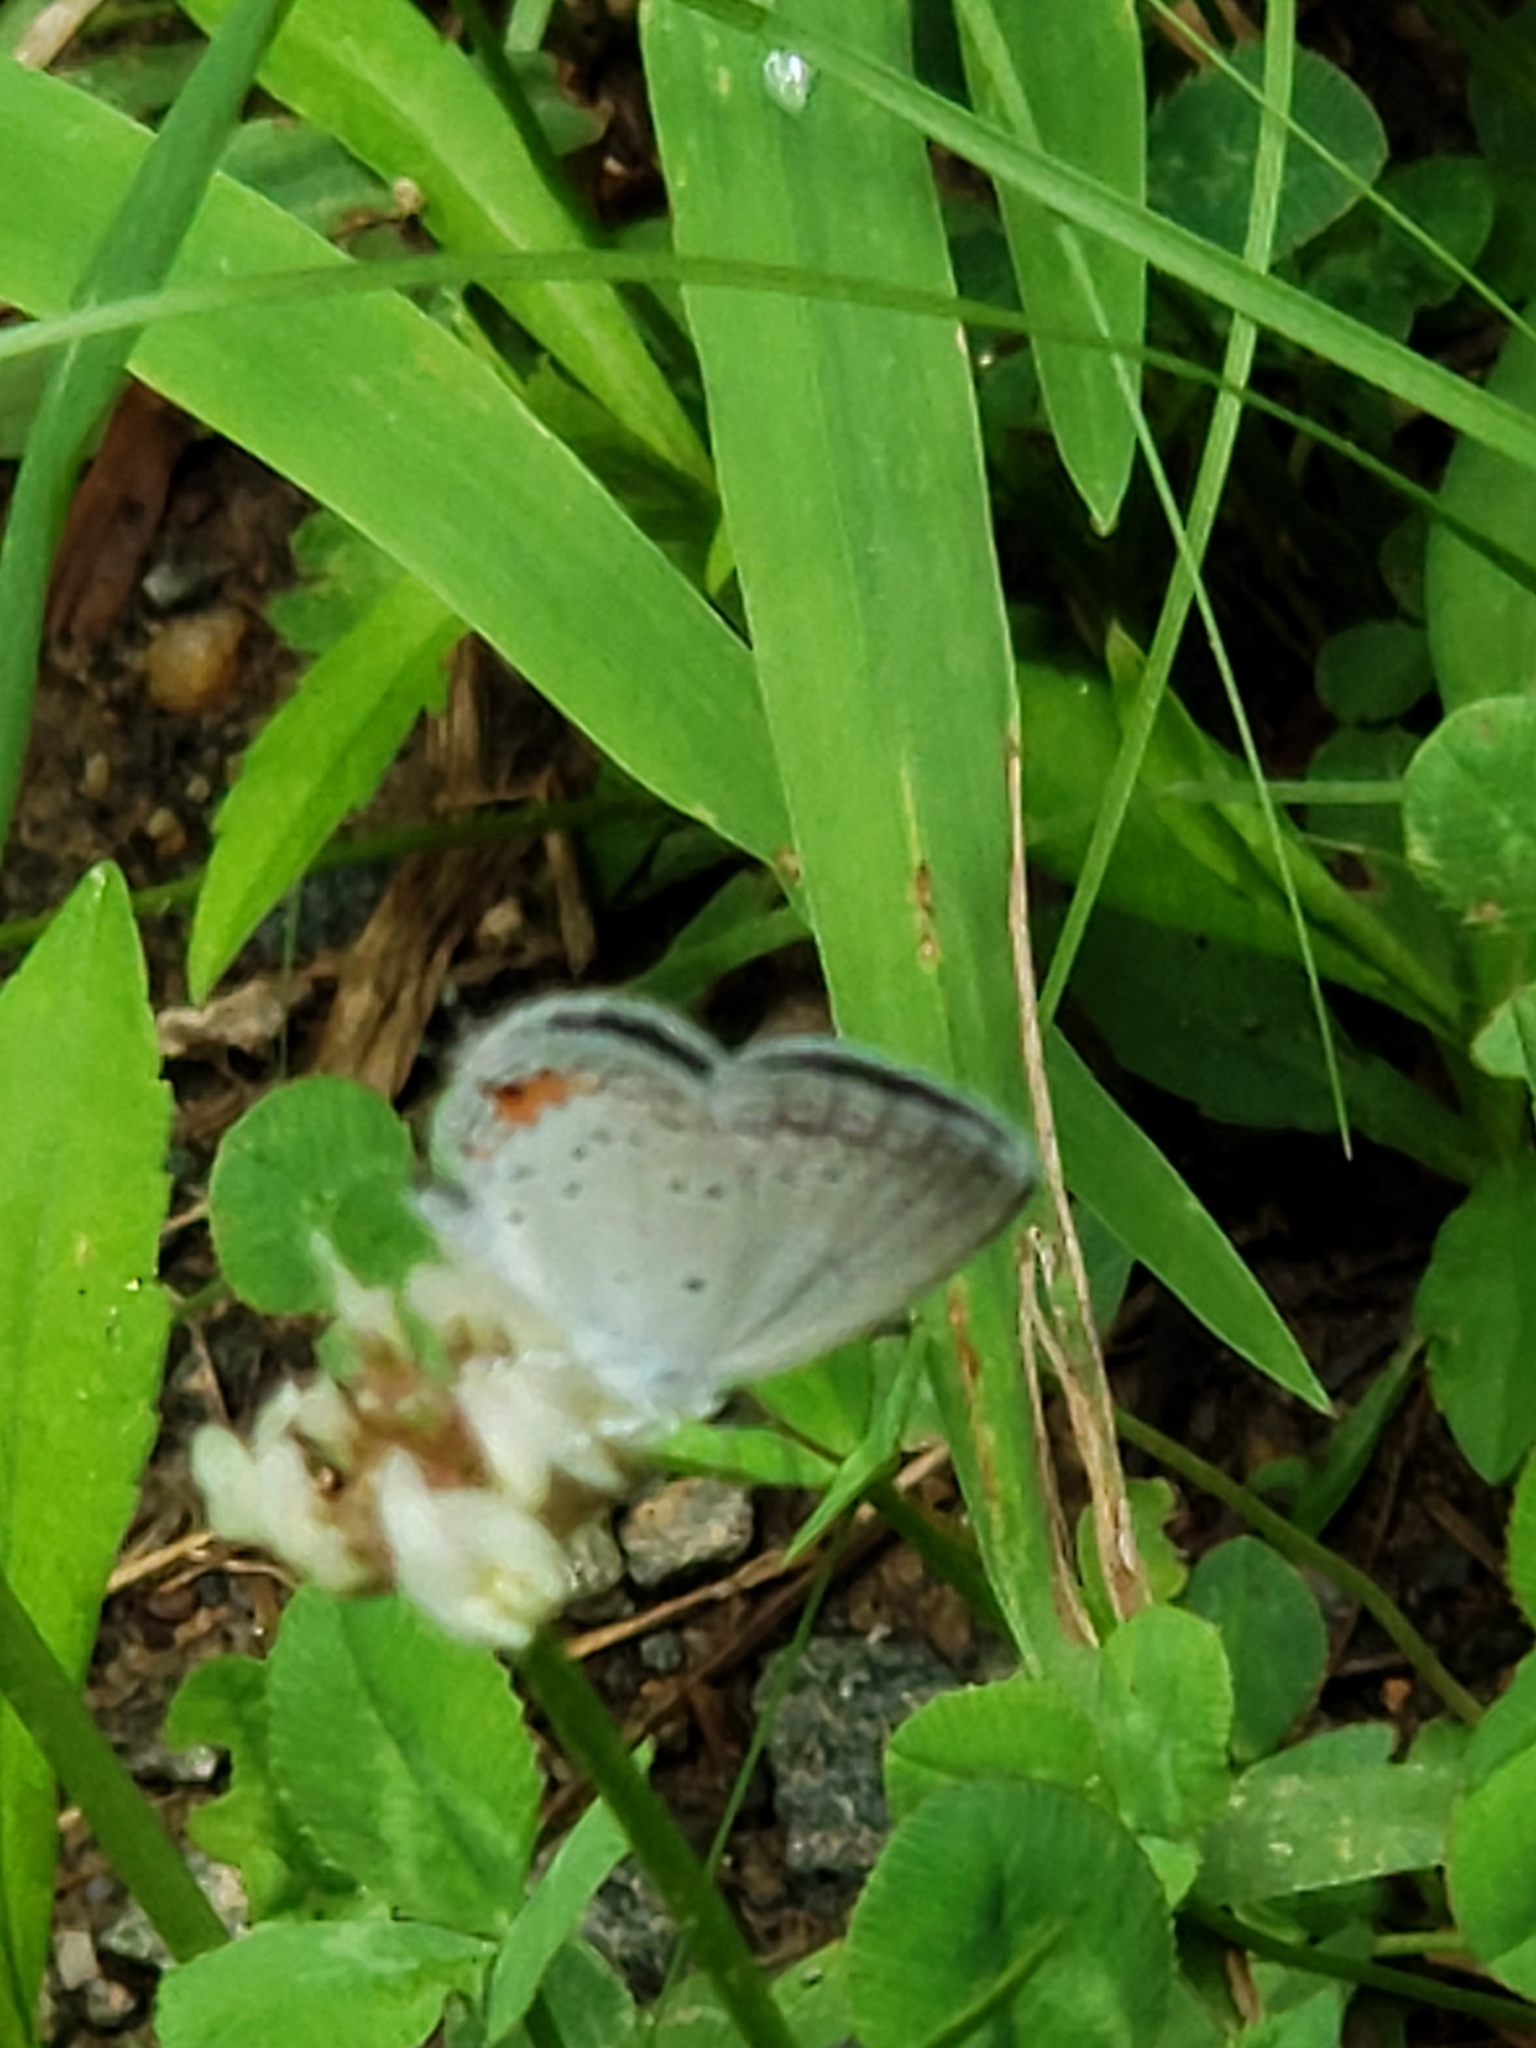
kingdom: Animalia
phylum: Arthropoda
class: Insecta
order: Lepidoptera
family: Lycaenidae
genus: Elkalyce
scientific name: Elkalyce comyntas
